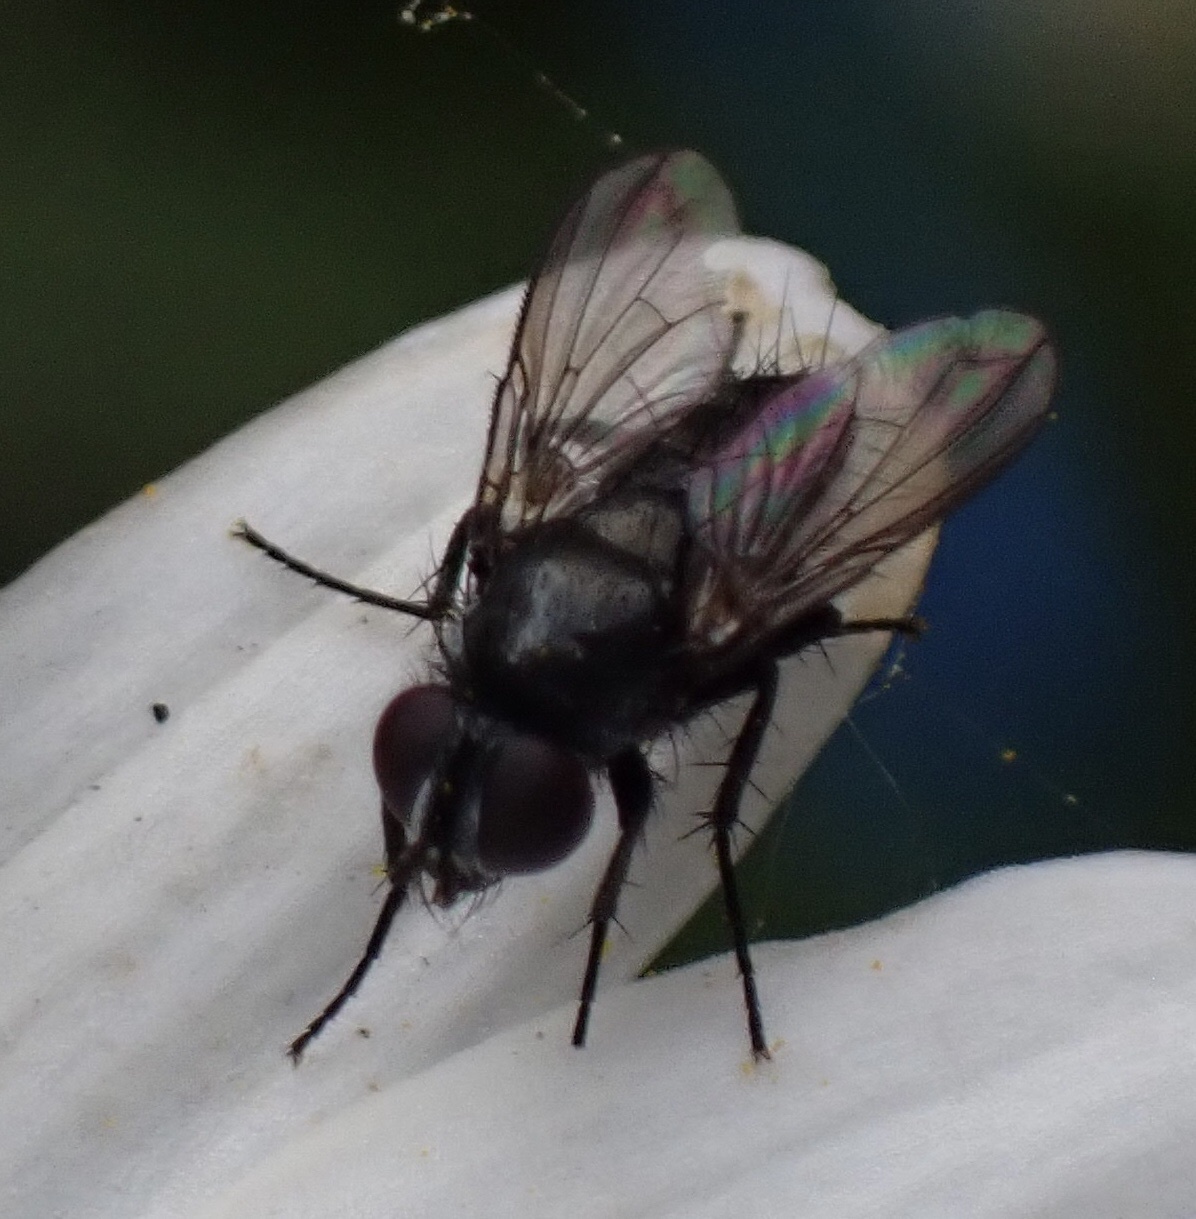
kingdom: Animalia
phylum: Arthropoda
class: Insecta
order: Diptera
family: Calliphoridae
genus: Rhinophora
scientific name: Rhinophora lepida
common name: Pouting woodlouse-fly
